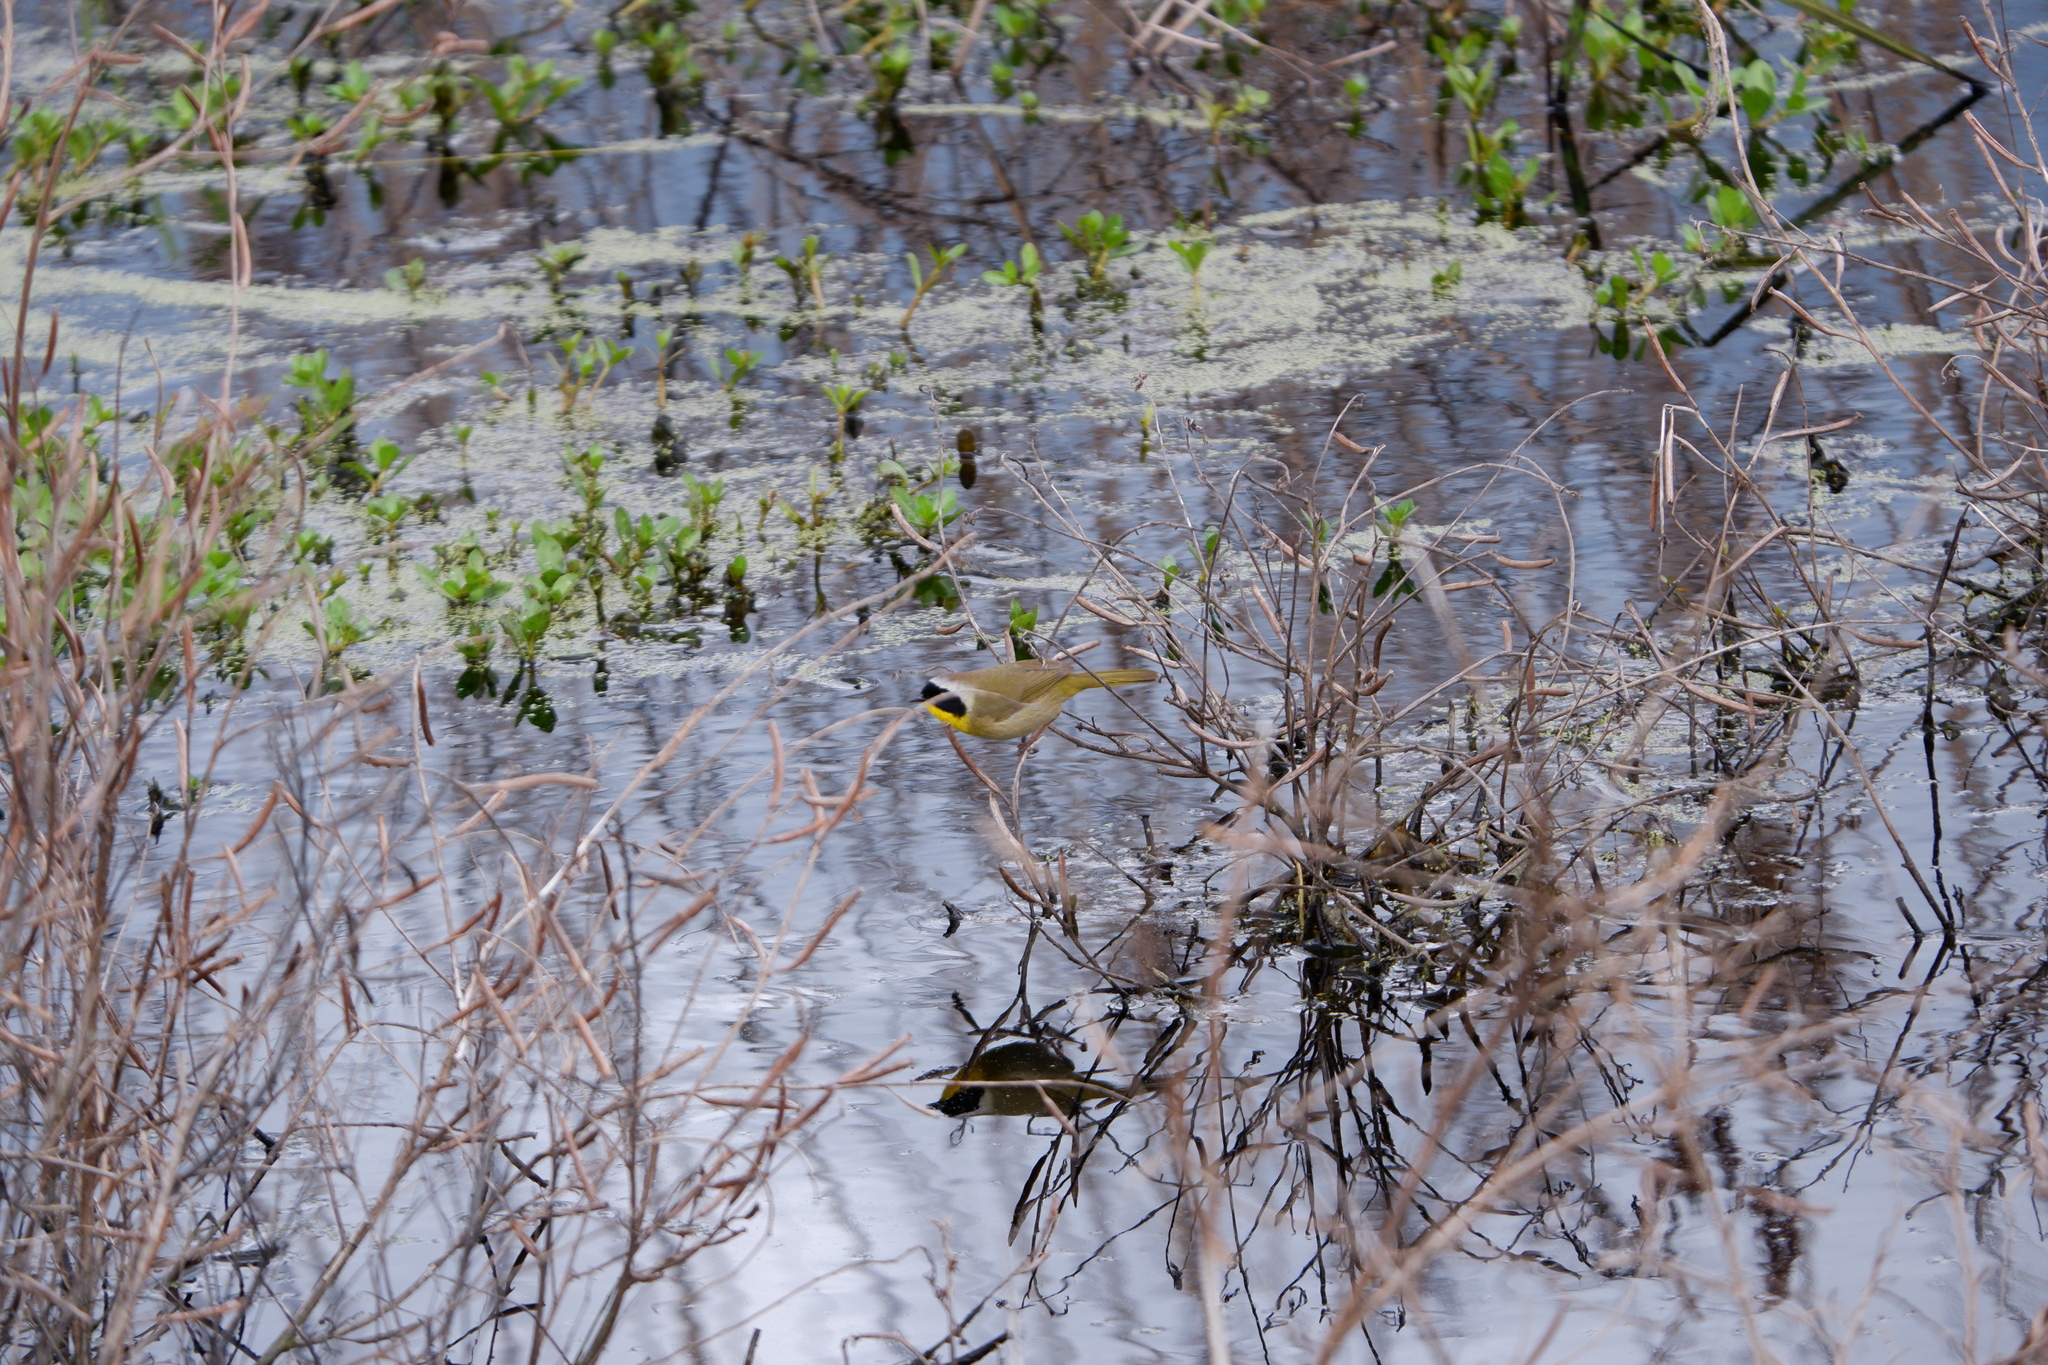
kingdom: Animalia
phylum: Chordata
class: Aves
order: Passeriformes
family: Parulidae
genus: Geothlypis
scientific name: Geothlypis trichas
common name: Common yellowthroat
